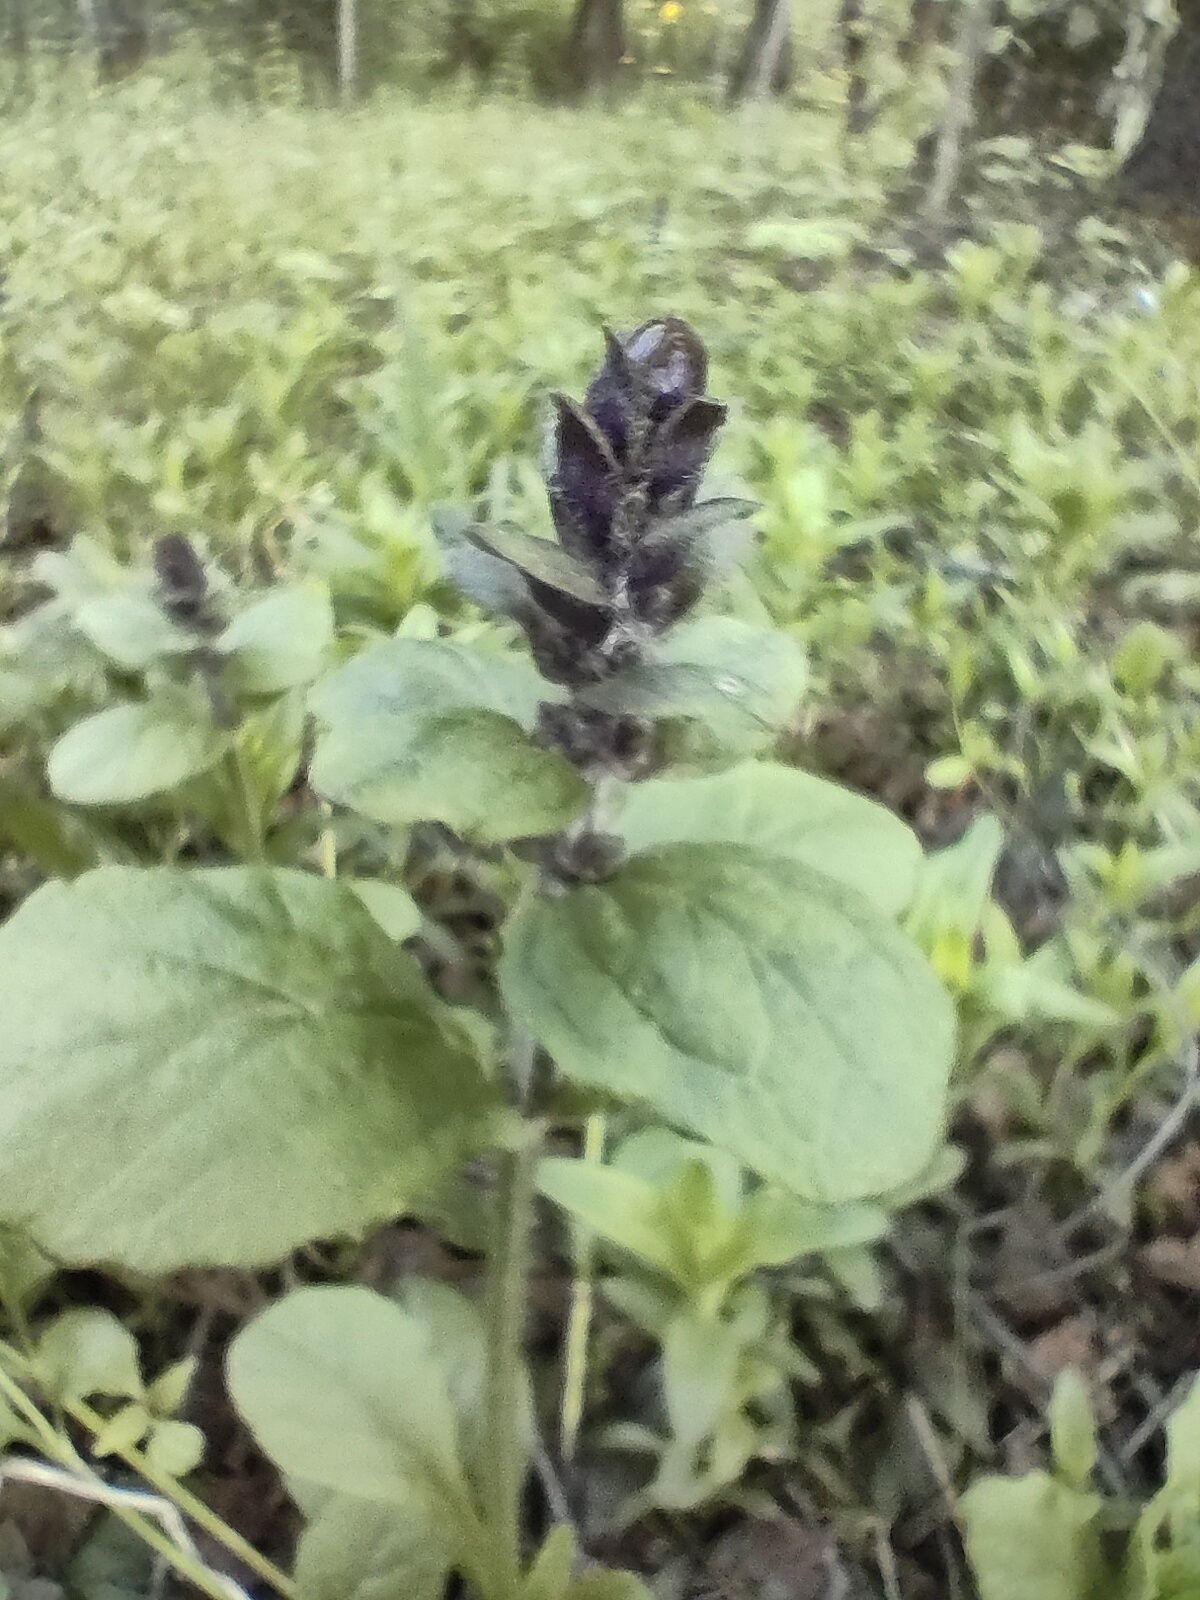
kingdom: Plantae
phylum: Tracheophyta
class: Magnoliopsida
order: Lamiales
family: Lamiaceae
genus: Ajuga
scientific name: Ajuga reptans
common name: Bugle
